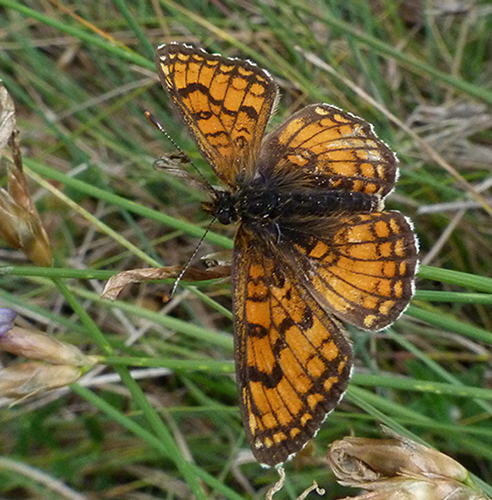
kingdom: Animalia
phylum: Arthropoda
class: Insecta
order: Lepidoptera
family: Nymphalidae
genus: Mellicta
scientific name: Mellicta parthenoides
